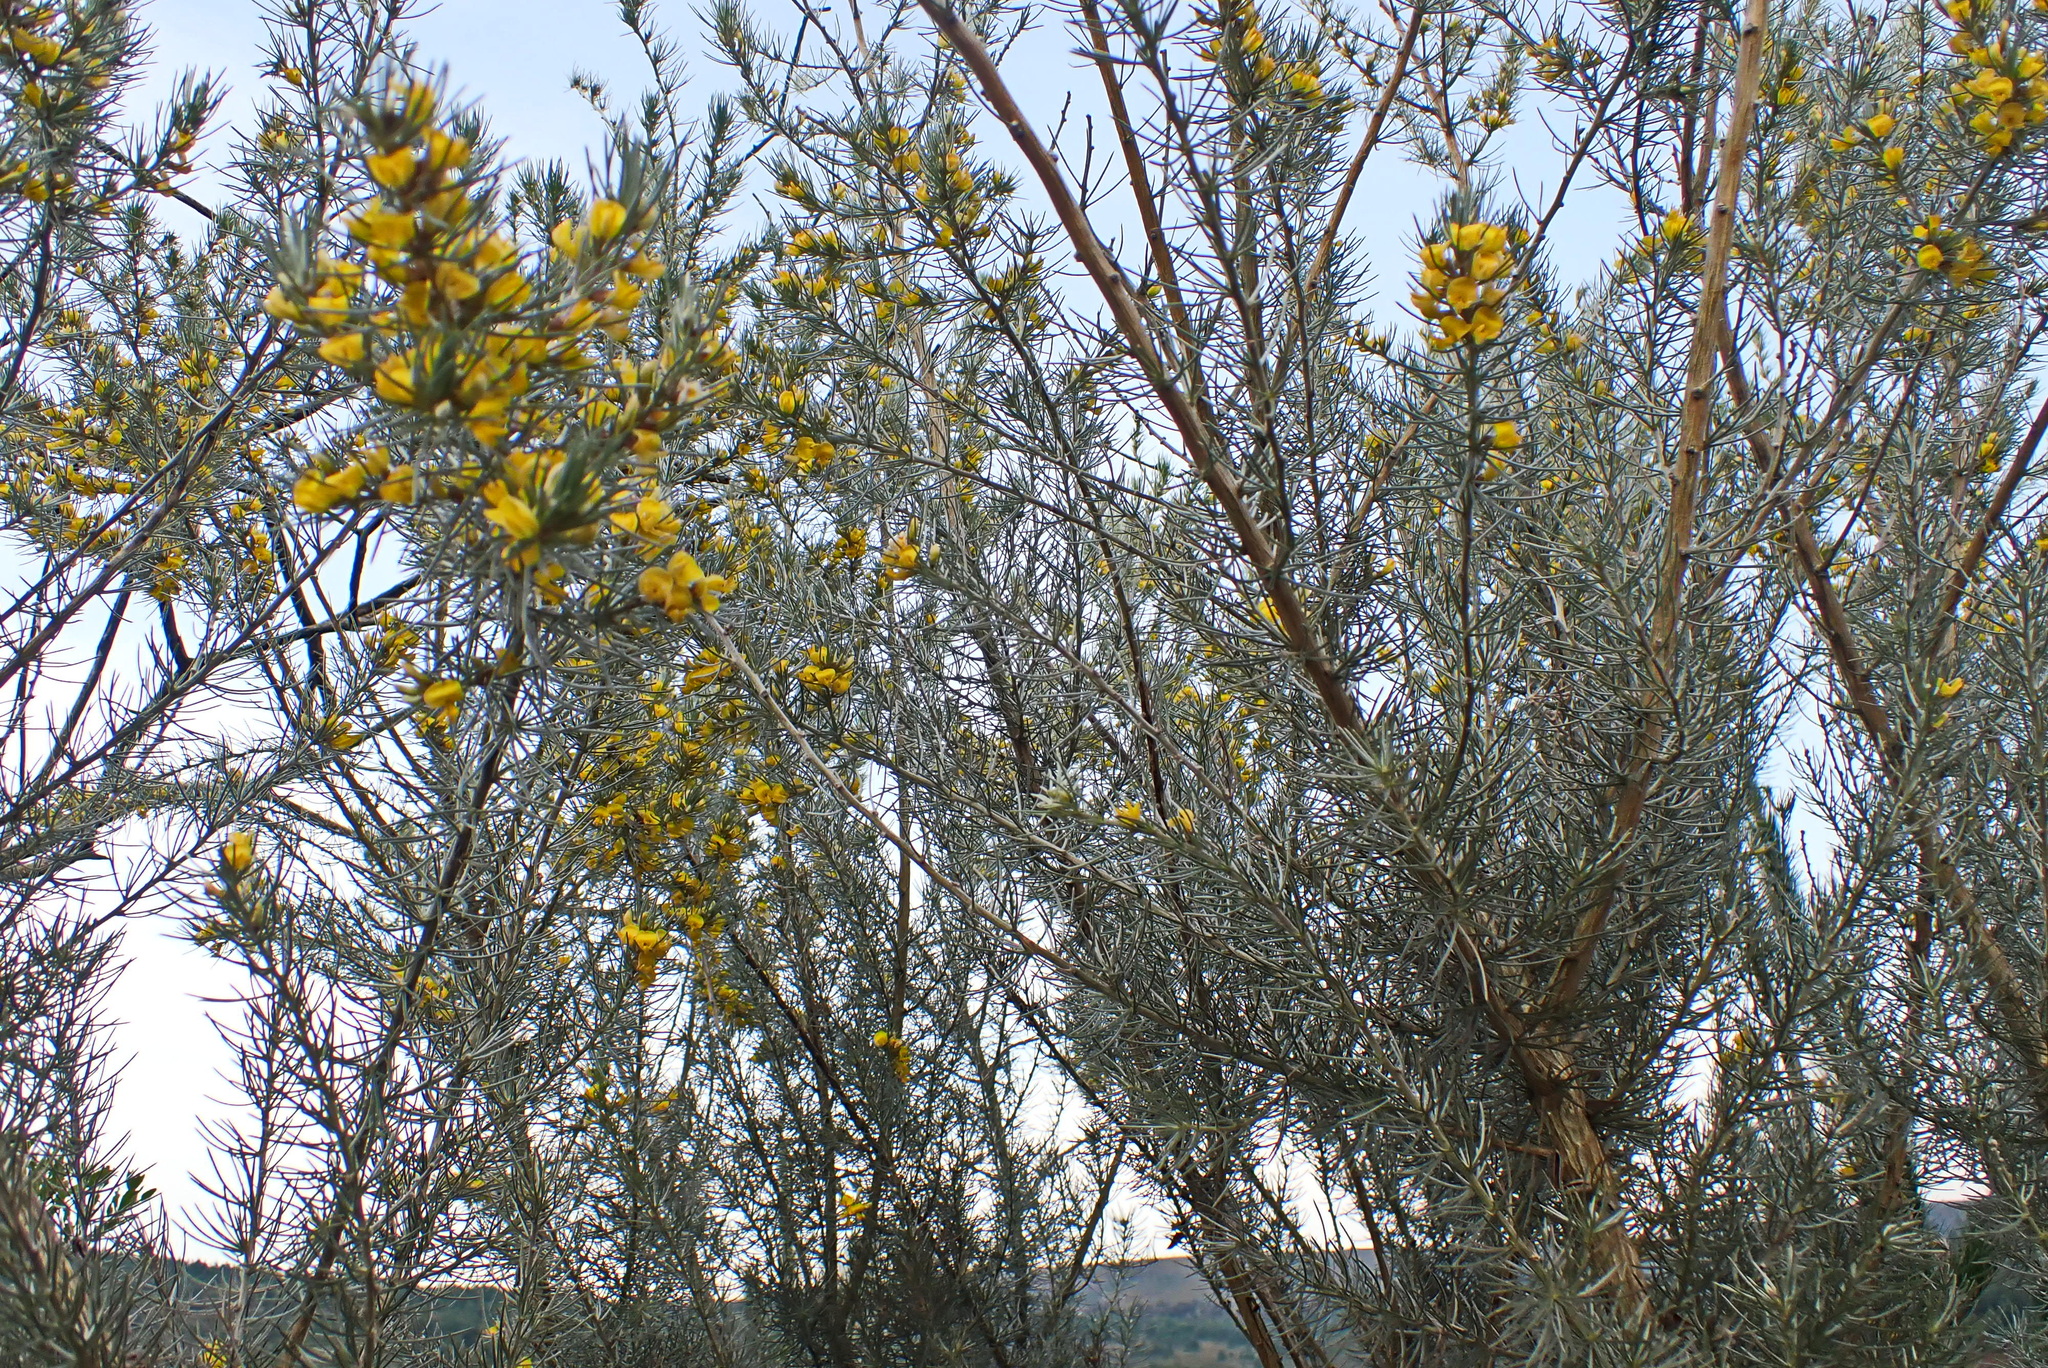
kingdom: Plantae
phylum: Tracheophyta
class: Magnoliopsida
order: Fabales
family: Fabaceae
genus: Aspalathus
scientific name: Aspalathus florifera
